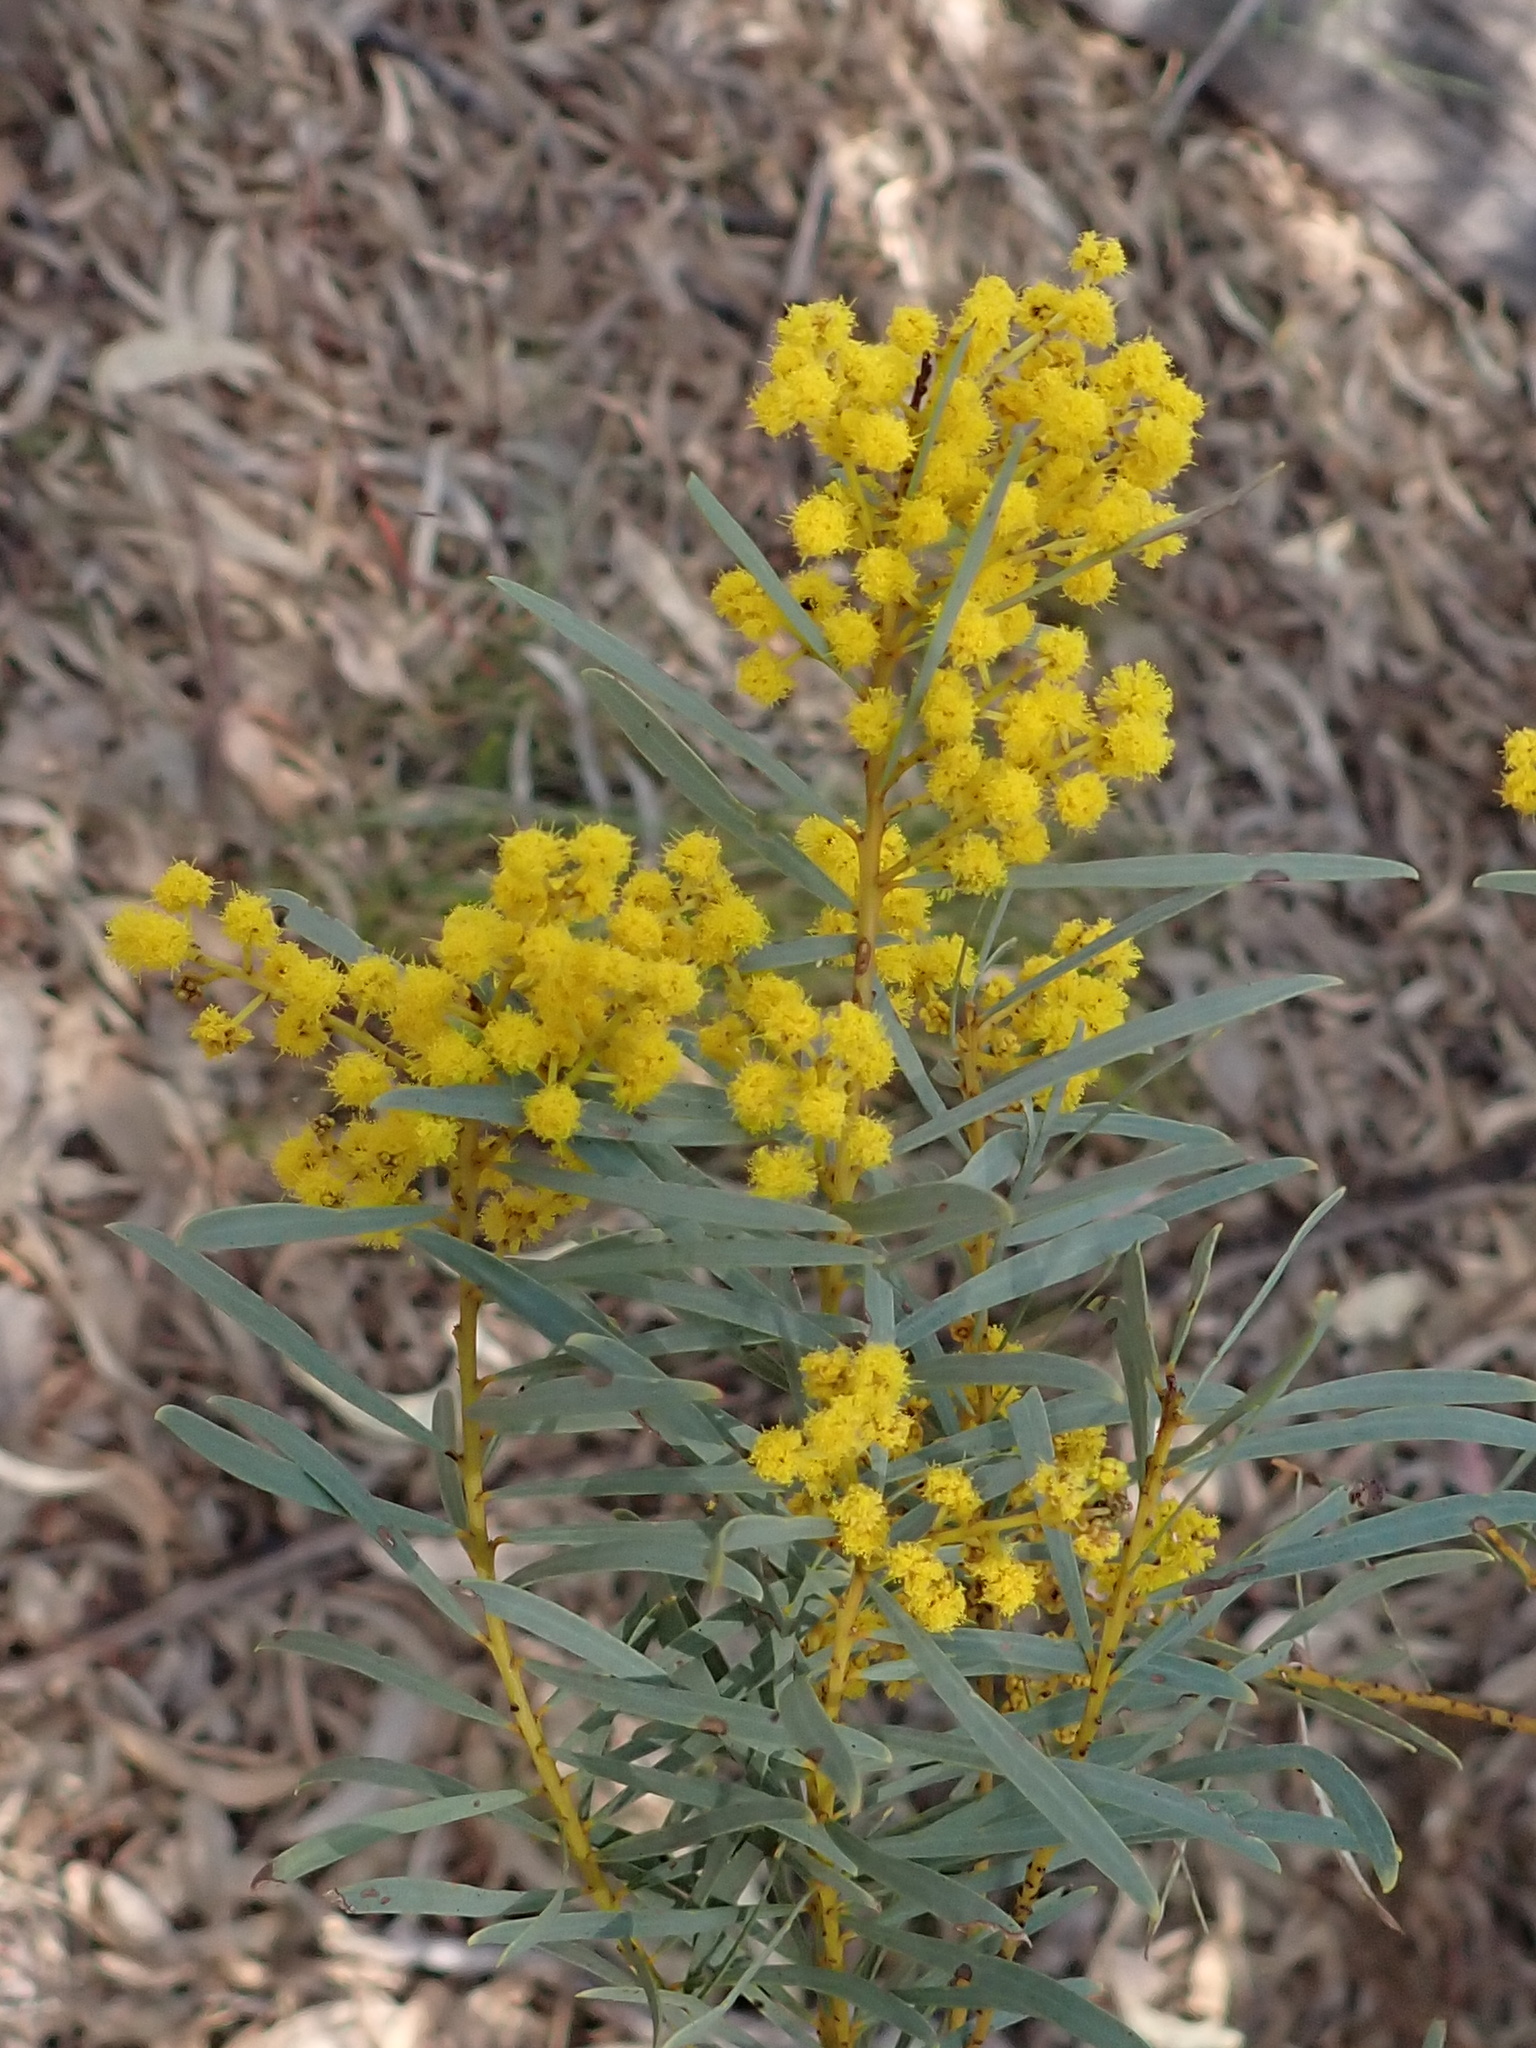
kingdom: Plantae
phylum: Tracheophyta
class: Magnoliopsida
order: Fabales
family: Fabaceae
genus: Acacia
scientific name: Acacia decora
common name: Showy wattle
